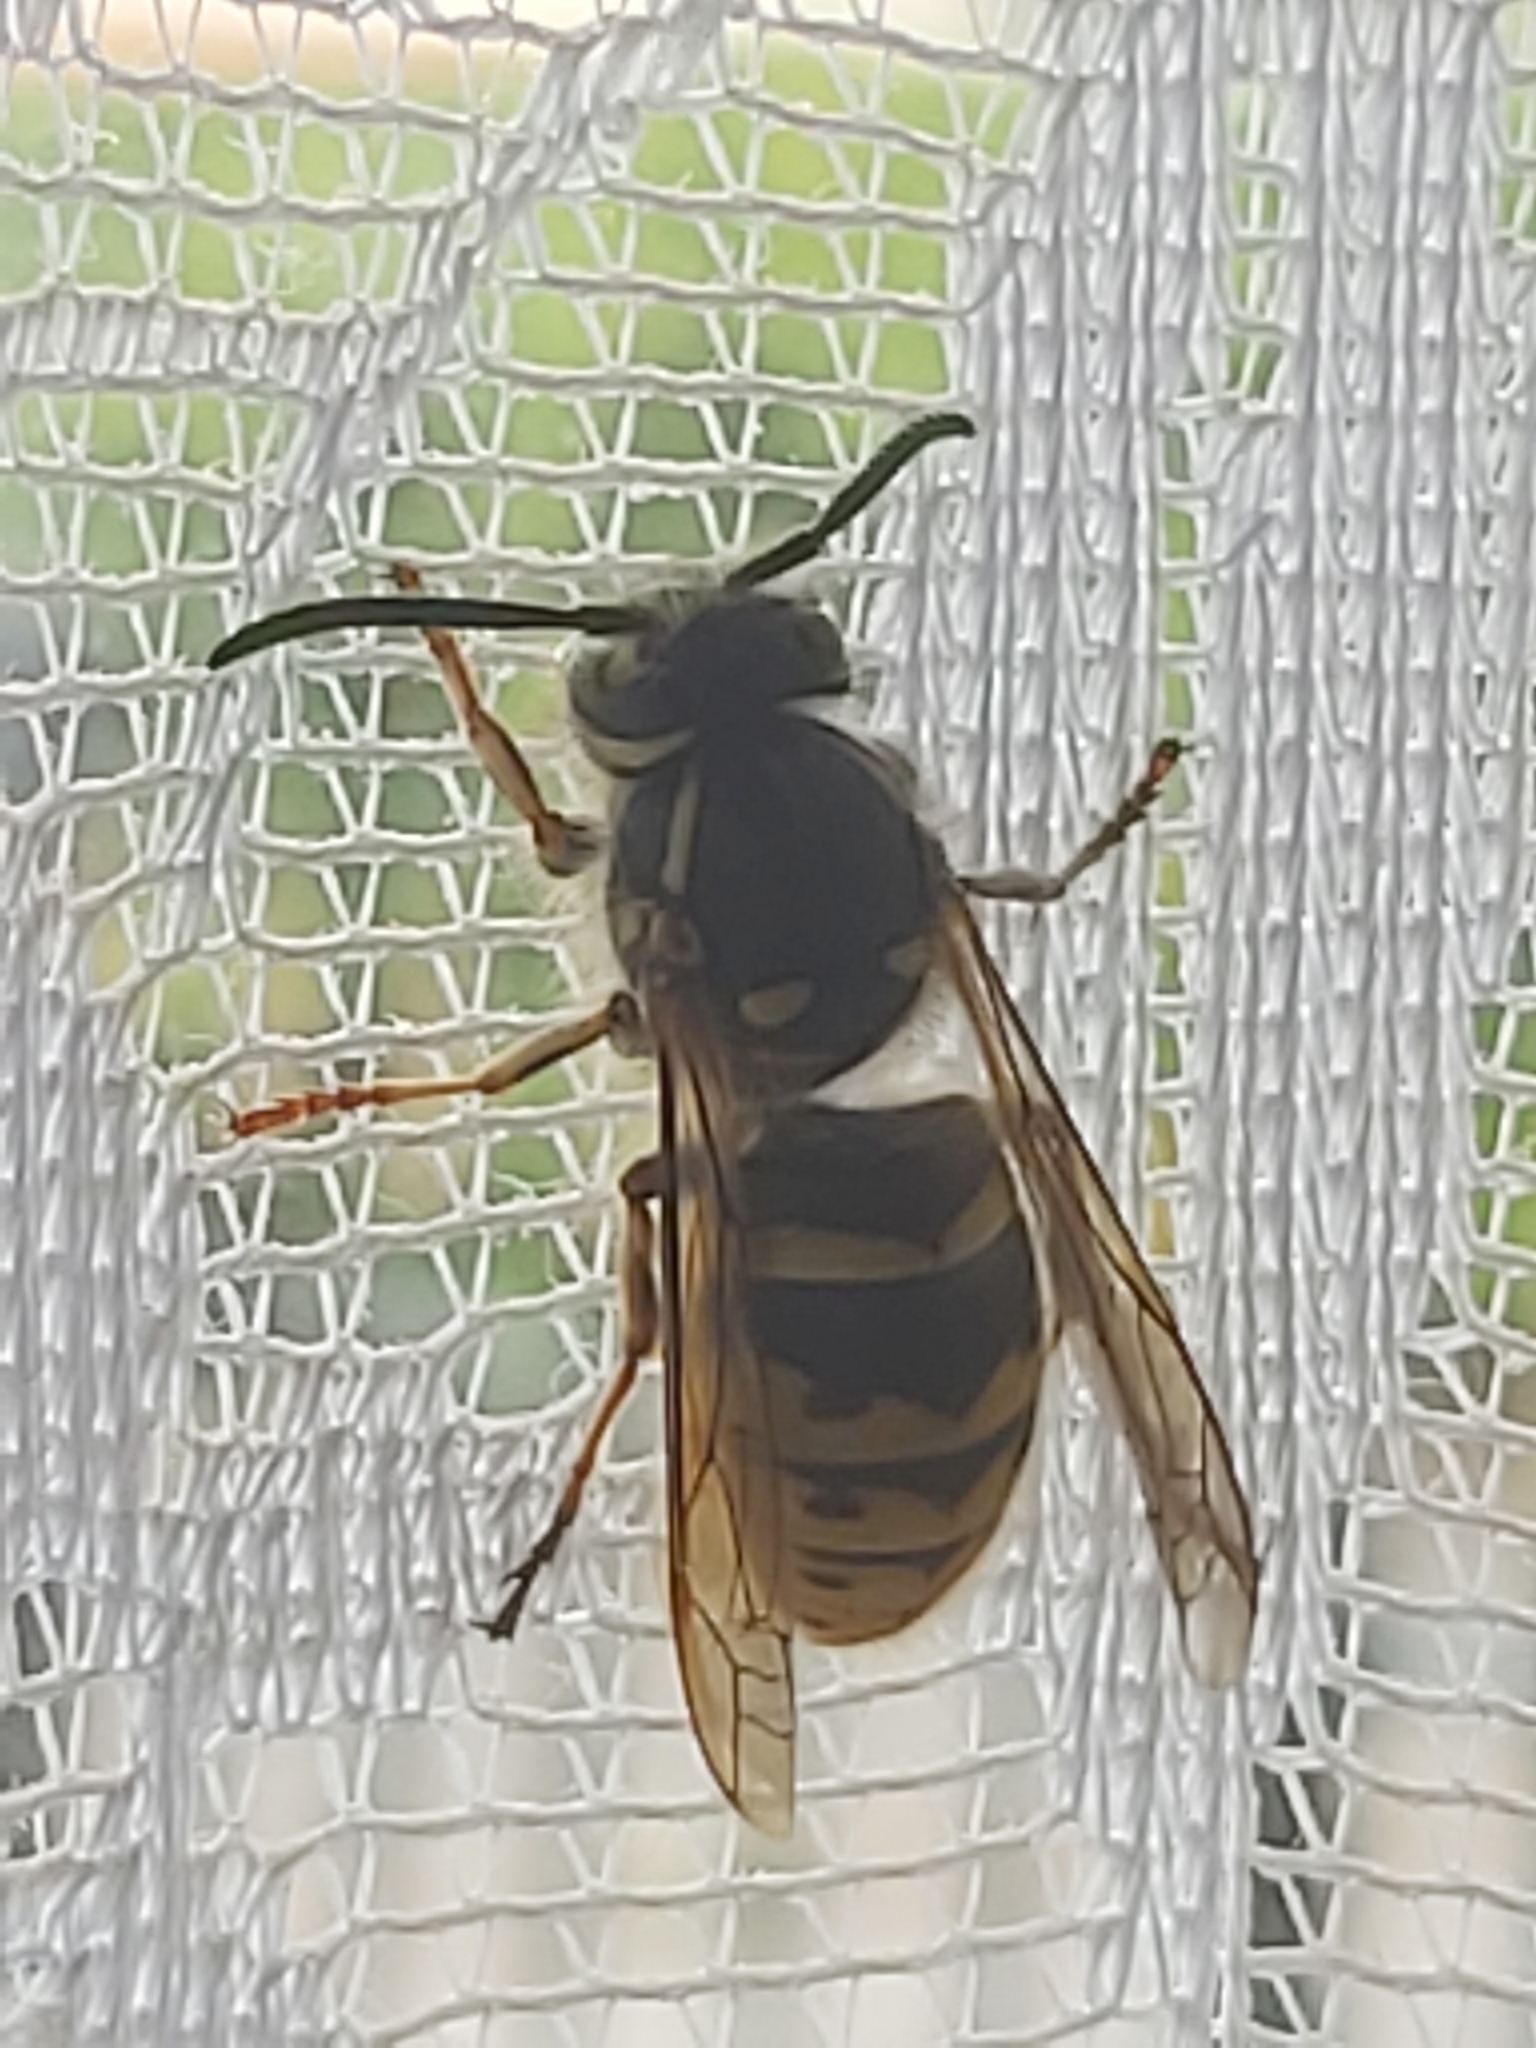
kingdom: Animalia
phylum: Arthropoda
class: Insecta
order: Hymenoptera
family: Vespidae
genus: Vespula
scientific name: Vespula vulgaris
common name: Common wasp
